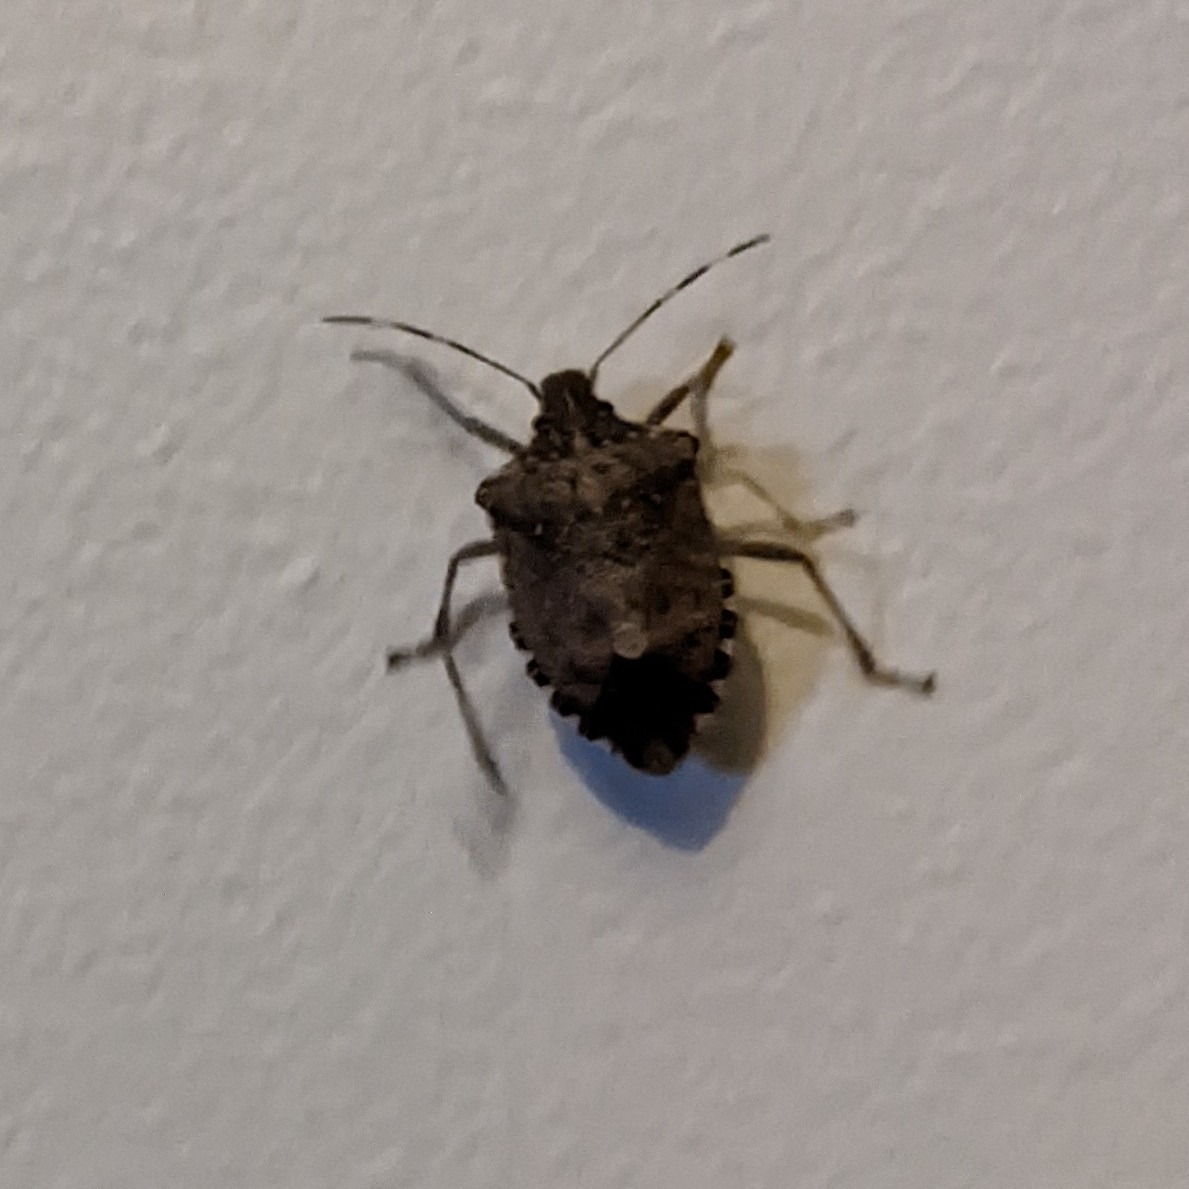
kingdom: Animalia
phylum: Arthropoda
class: Insecta
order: Hemiptera
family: Pentatomidae
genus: Halyomorpha
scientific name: Halyomorpha halys
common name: Brown marmorated stink bug
